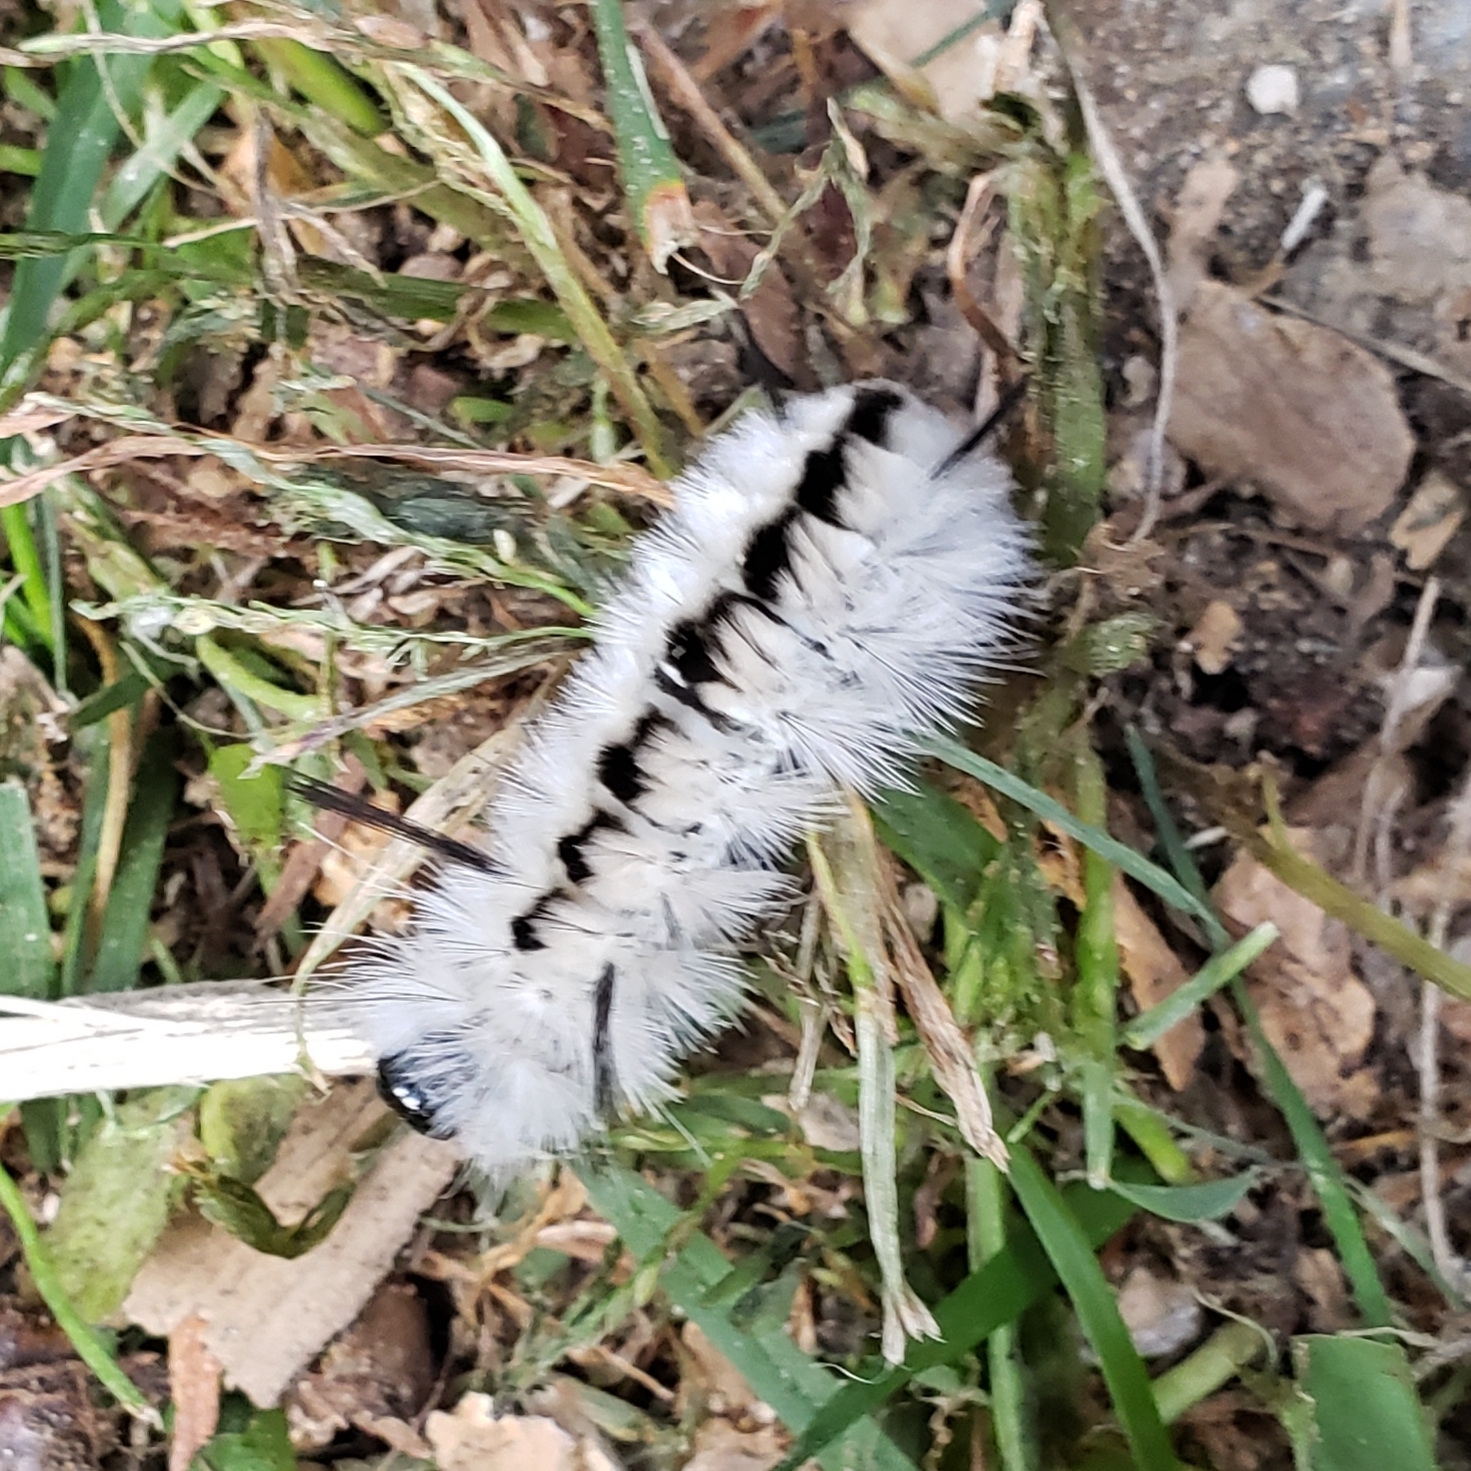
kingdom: Animalia
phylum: Arthropoda
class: Insecta
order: Lepidoptera
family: Erebidae
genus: Lophocampa
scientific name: Lophocampa caryae
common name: Hickory tussock moth
